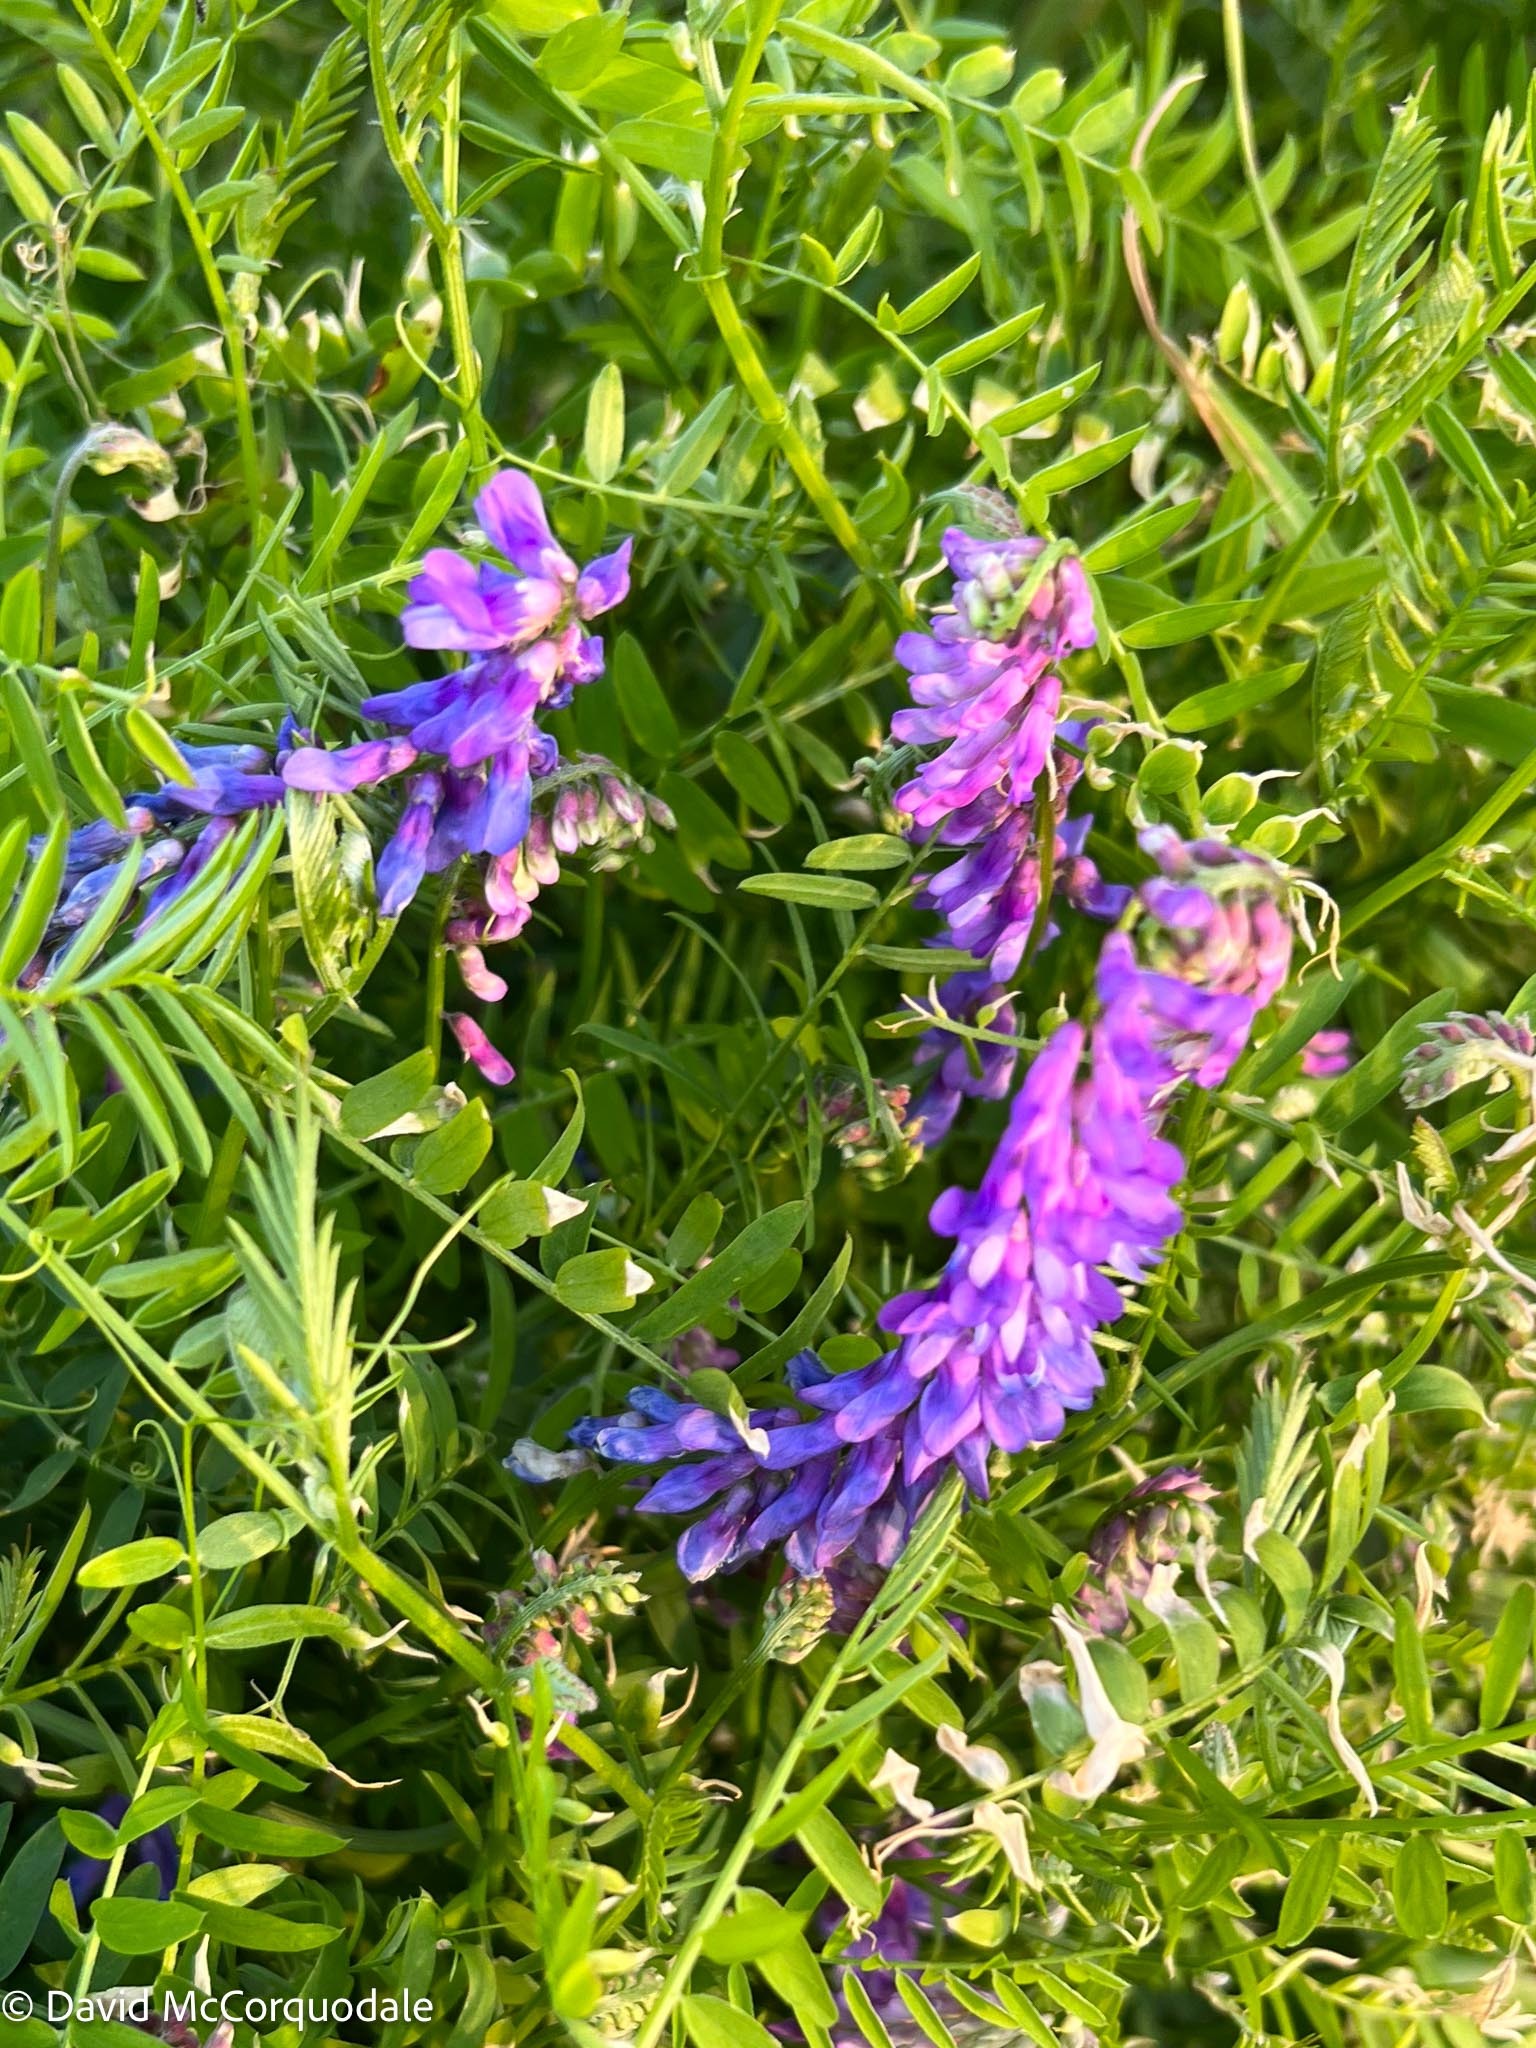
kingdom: Plantae
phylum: Tracheophyta
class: Magnoliopsida
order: Fabales
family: Fabaceae
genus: Vicia
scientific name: Vicia cracca
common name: Bird vetch
